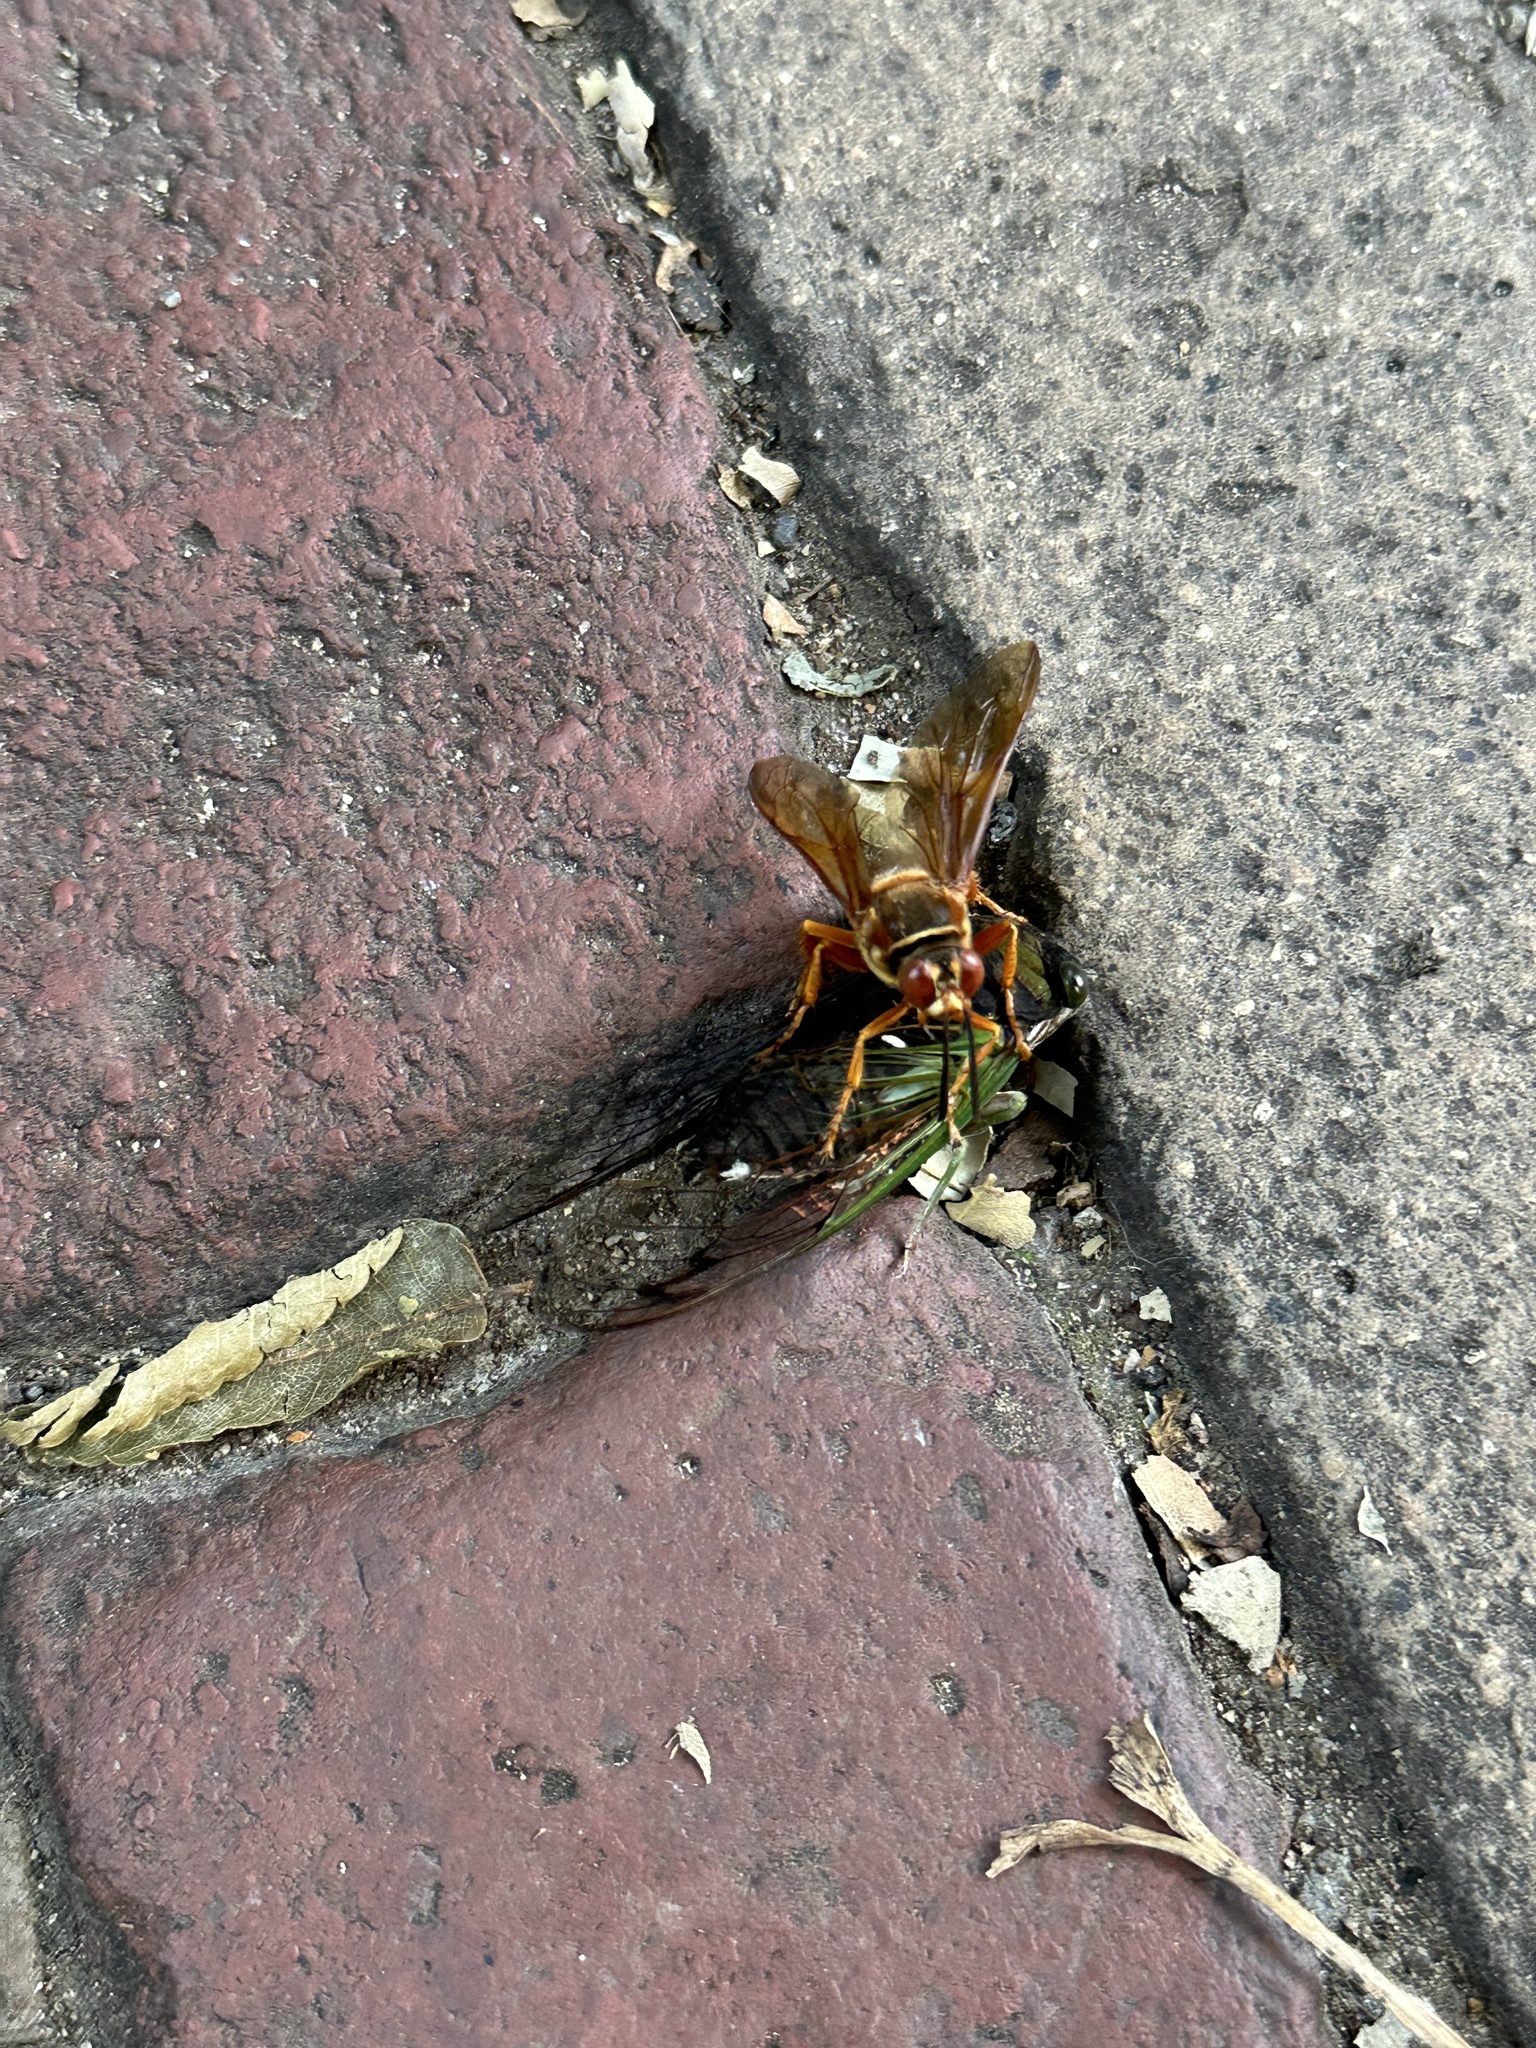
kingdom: Animalia
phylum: Arthropoda
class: Insecta
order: Hemiptera
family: Cicadidae
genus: Neotibicen
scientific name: Neotibicen tibicen
